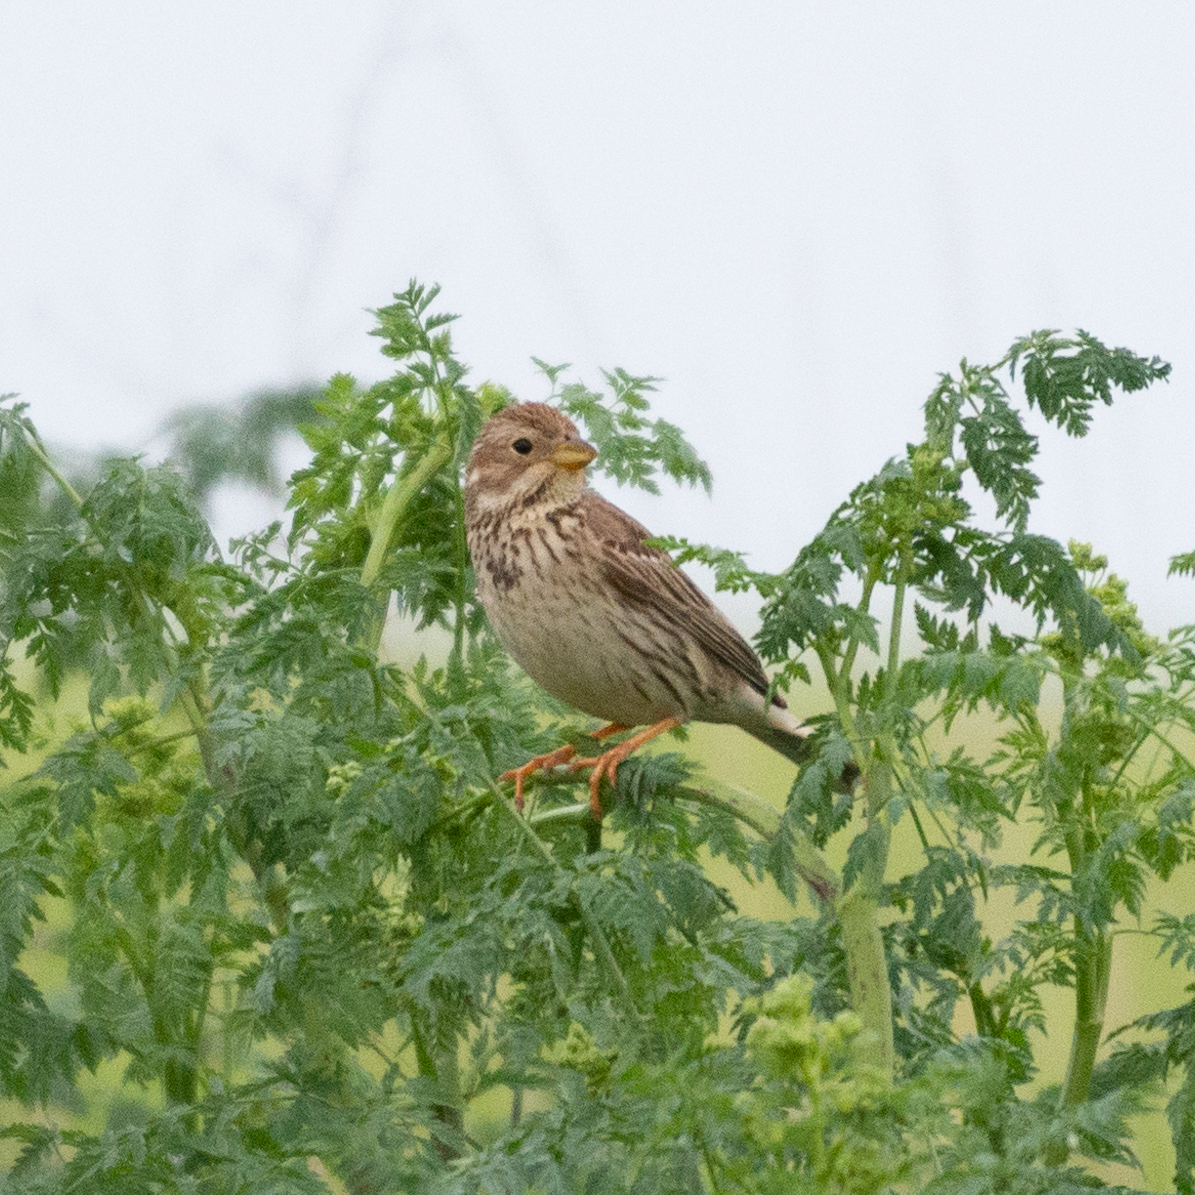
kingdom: Animalia
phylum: Chordata
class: Aves
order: Passeriformes
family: Emberizidae
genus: Emberiza
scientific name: Emberiza calandra
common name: Corn bunting
